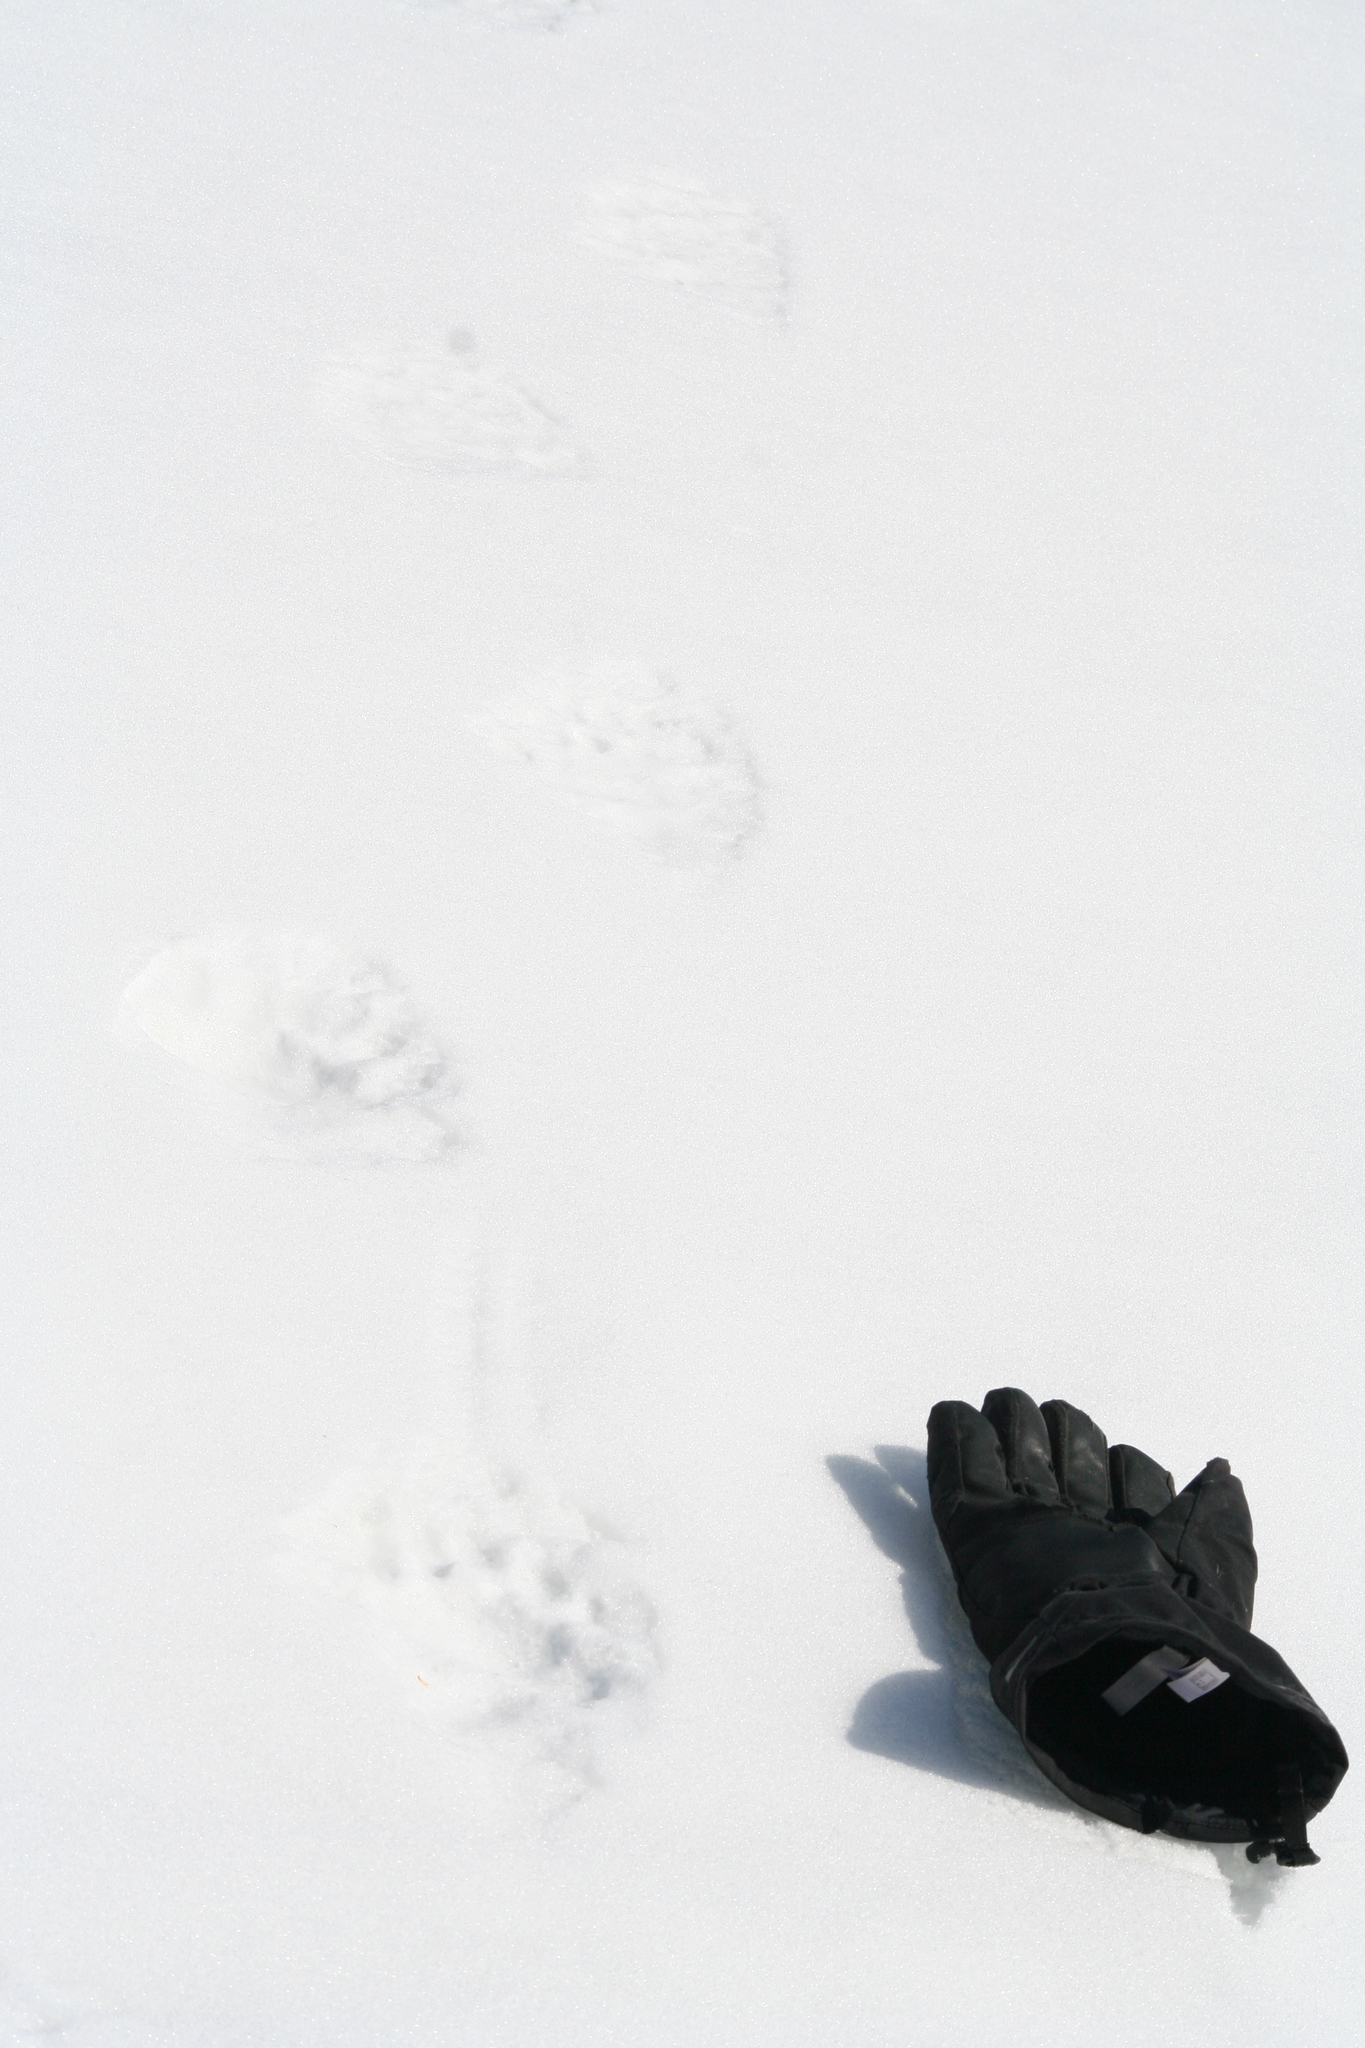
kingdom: Animalia
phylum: Chordata
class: Mammalia
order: Carnivora
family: Ursidae
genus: Ursus
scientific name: Ursus americanus
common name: American black bear
